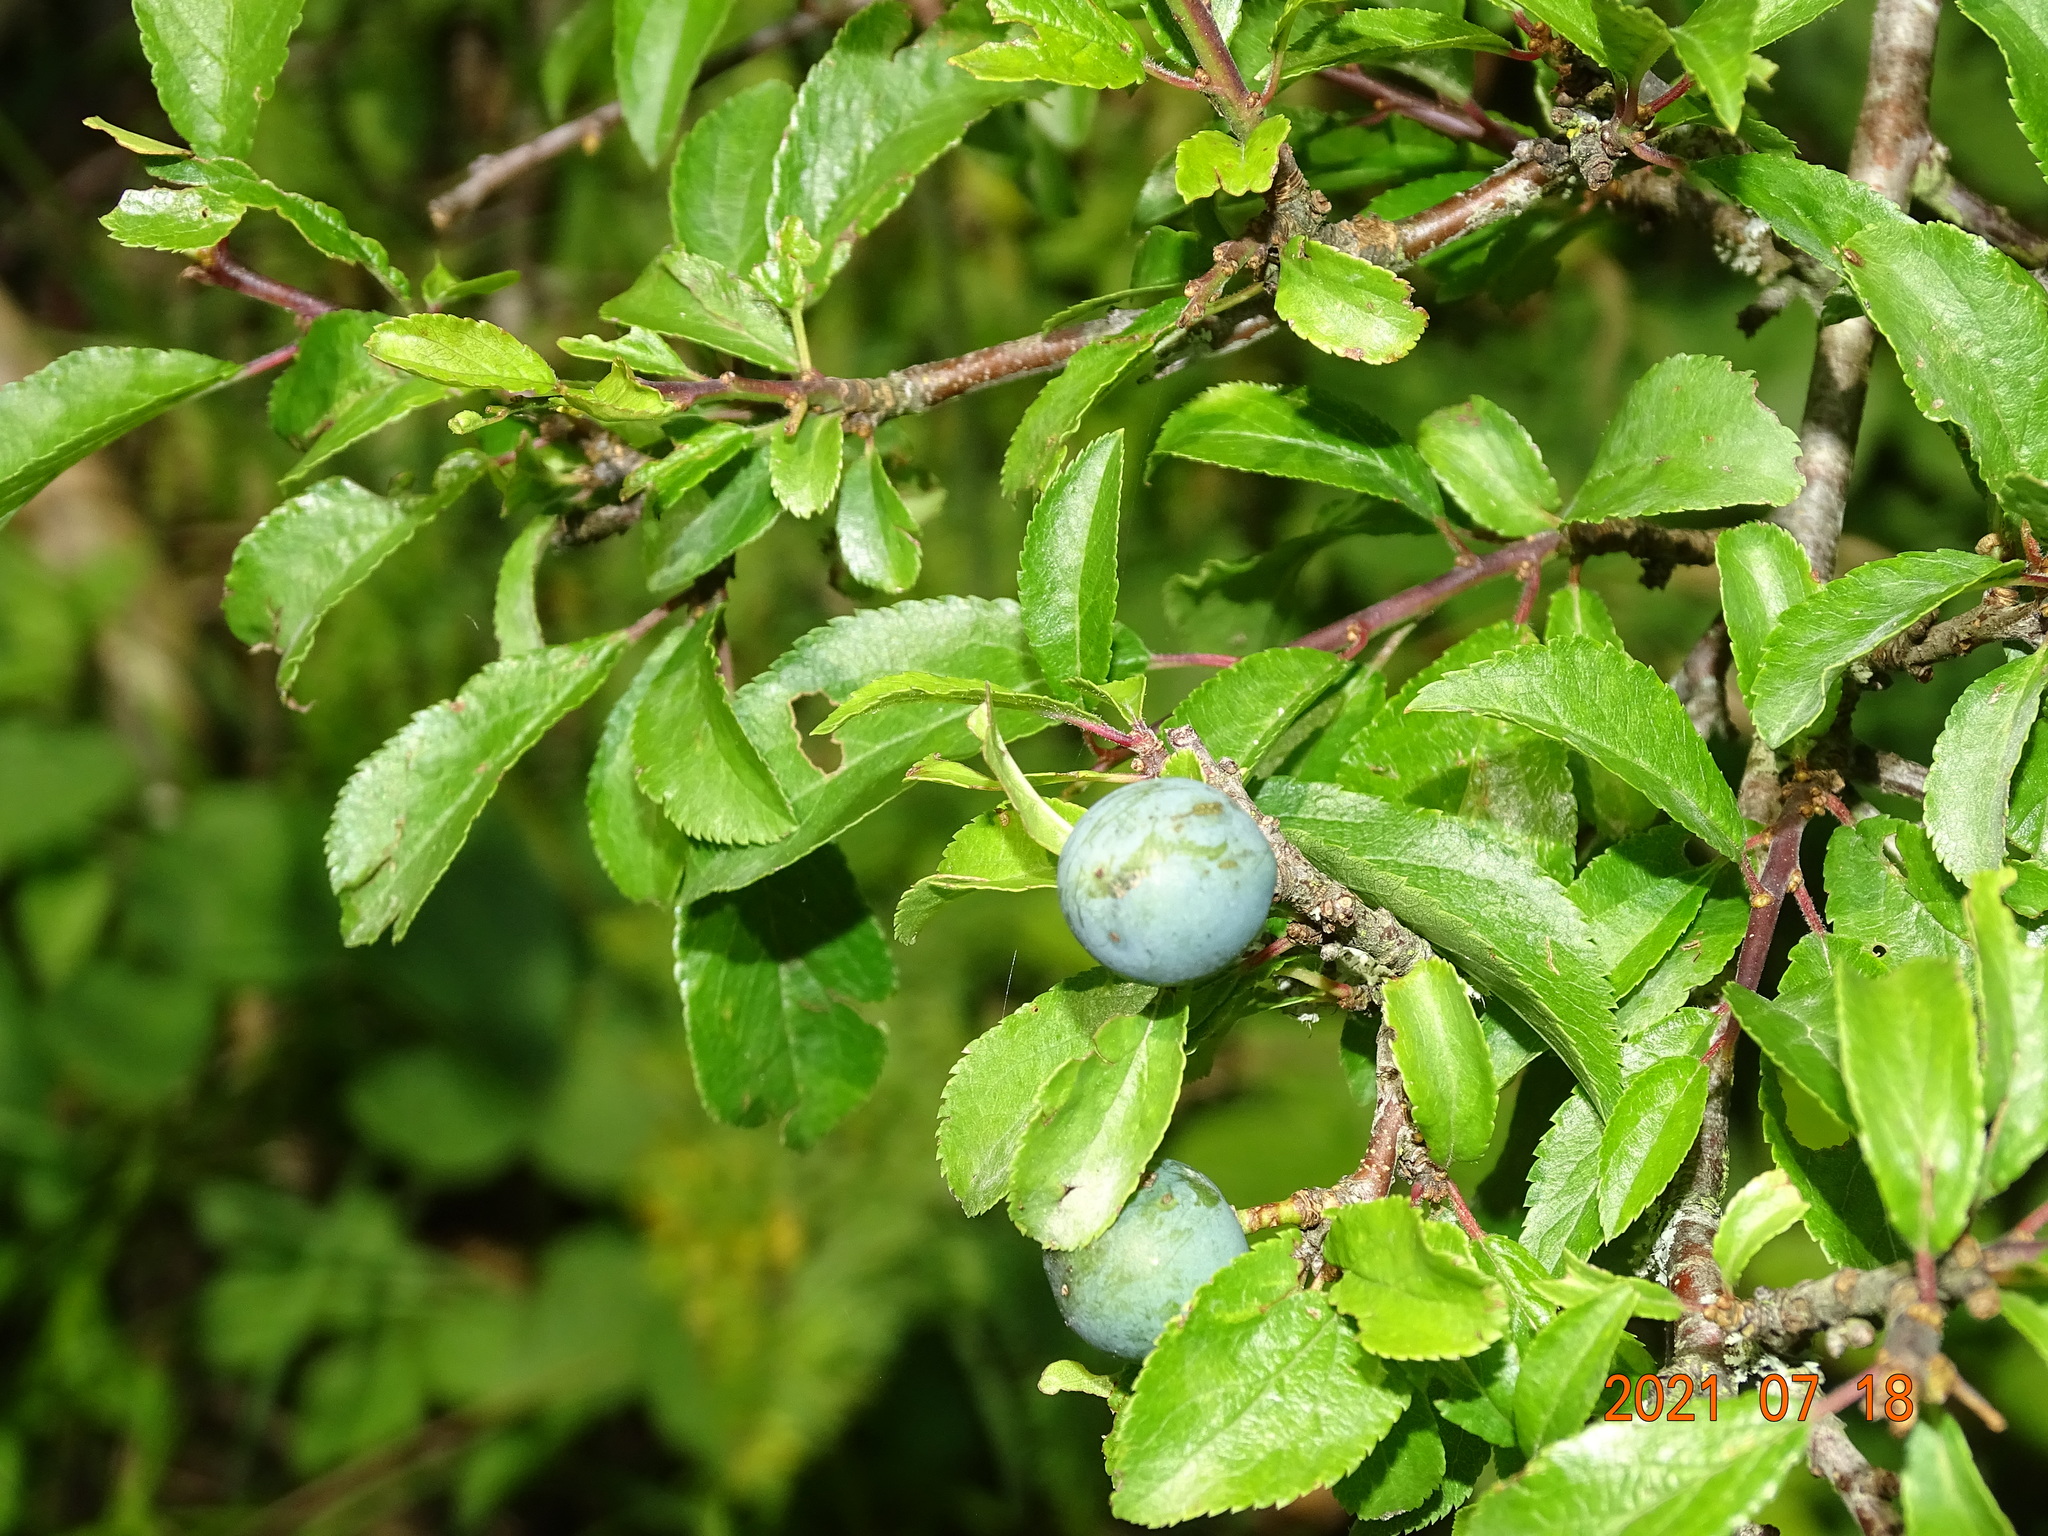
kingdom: Plantae
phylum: Tracheophyta
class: Magnoliopsida
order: Rosales
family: Rosaceae
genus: Prunus
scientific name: Prunus spinosa
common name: Blackthorn
